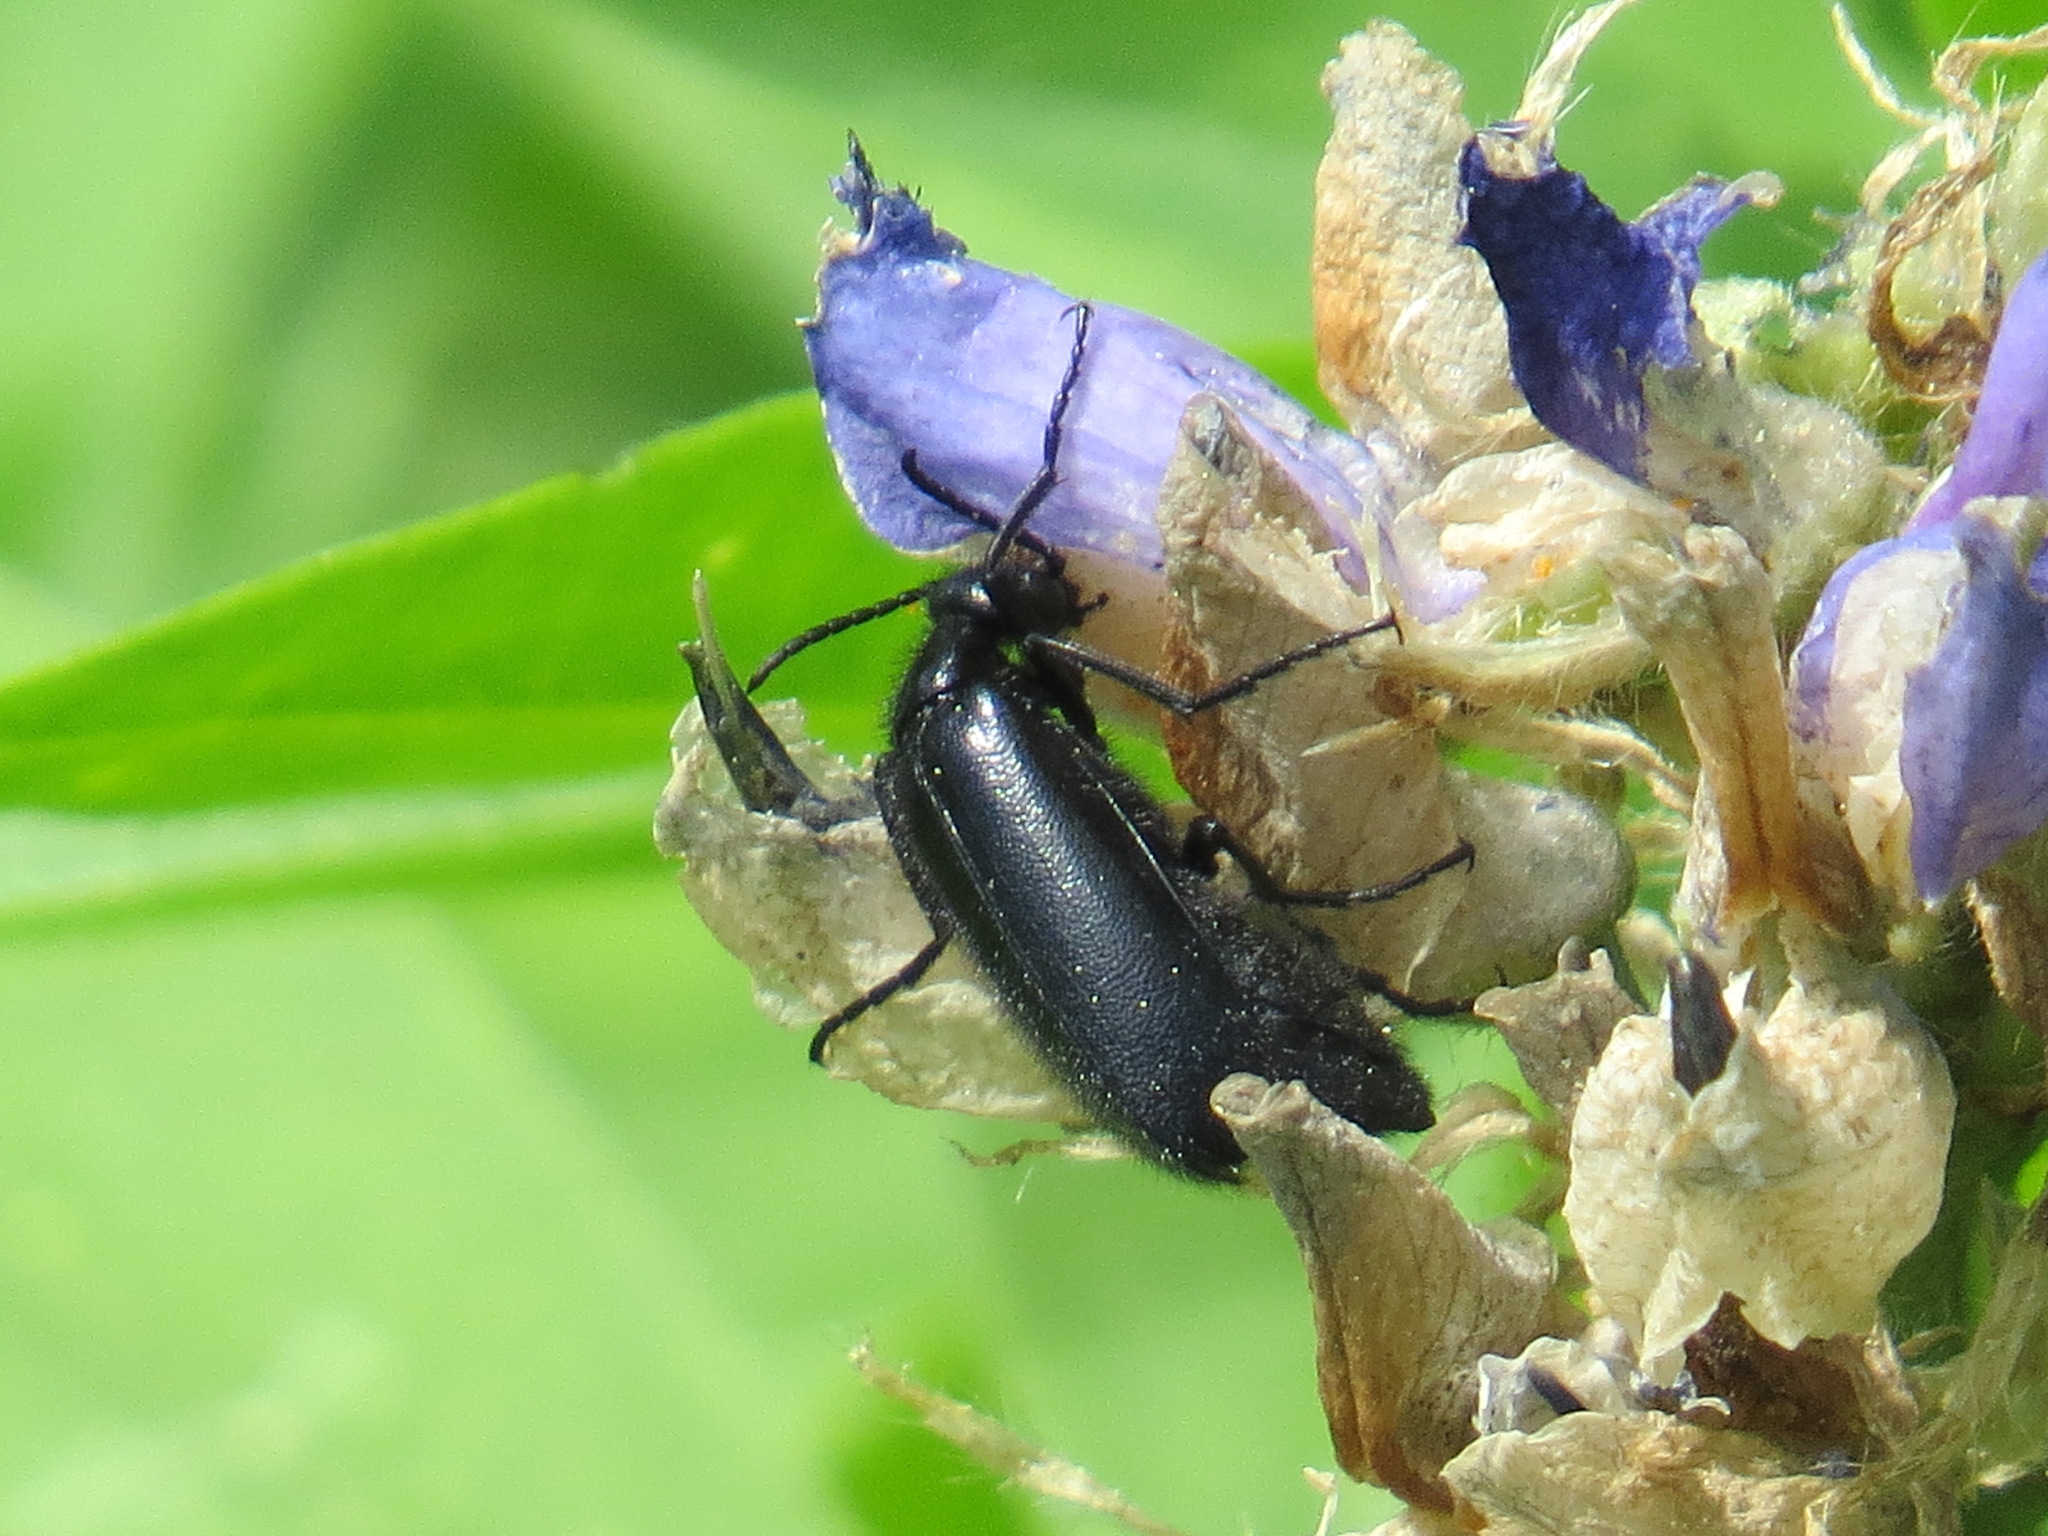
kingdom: Animalia
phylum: Arthropoda
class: Insecta
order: Coleoptera
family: Meloidae
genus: Epicauta
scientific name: Epicauta puncticollis
